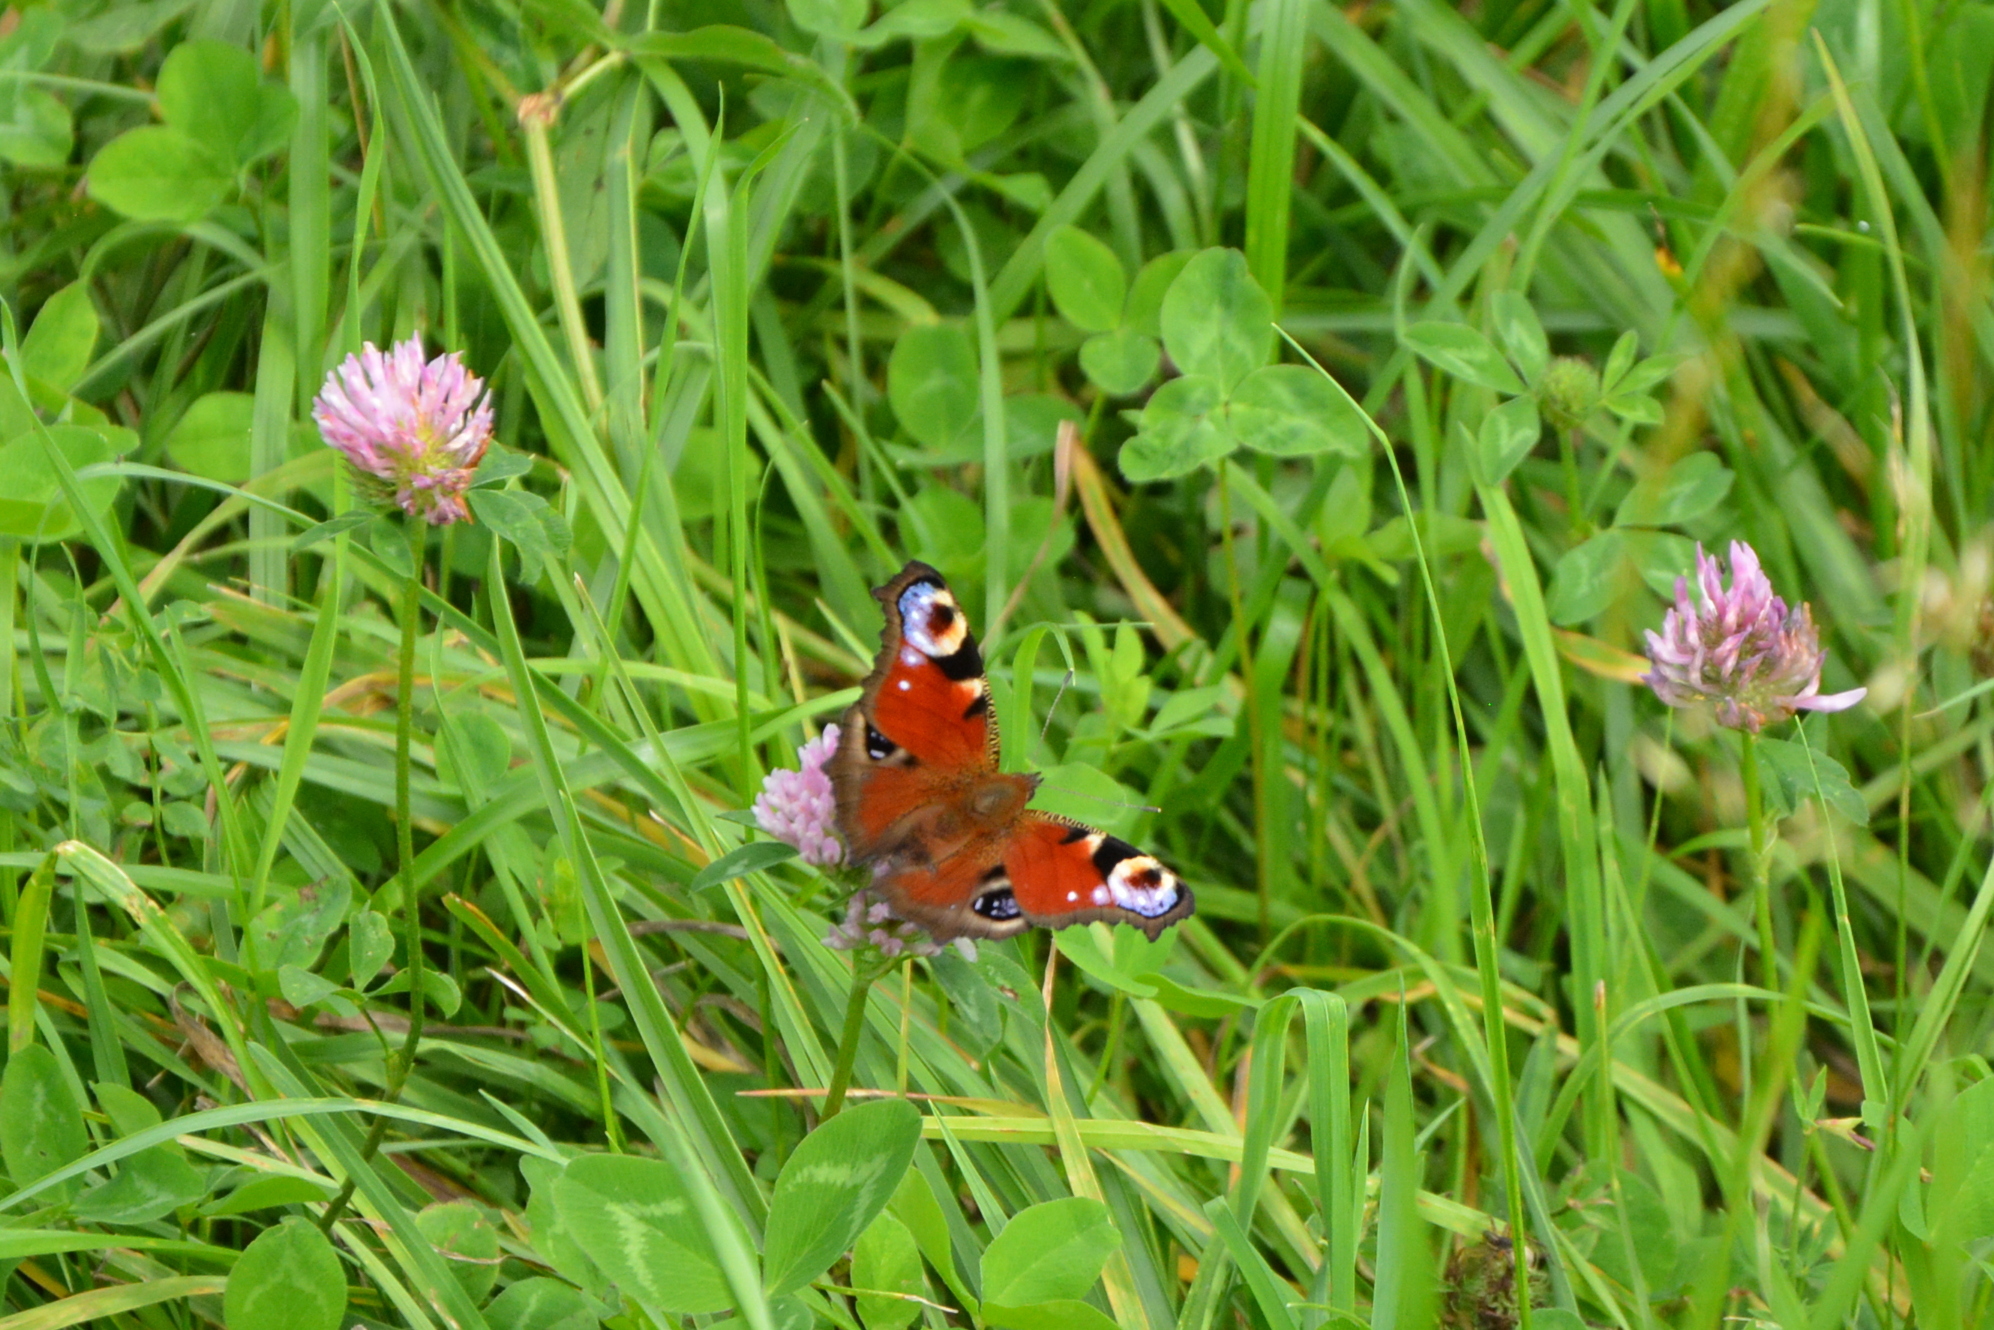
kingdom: Animalia
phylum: Arthropoda
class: Insecta
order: Lepidoptera
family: Nymphalidae
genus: Aglais
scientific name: Aglais io
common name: Peacock
